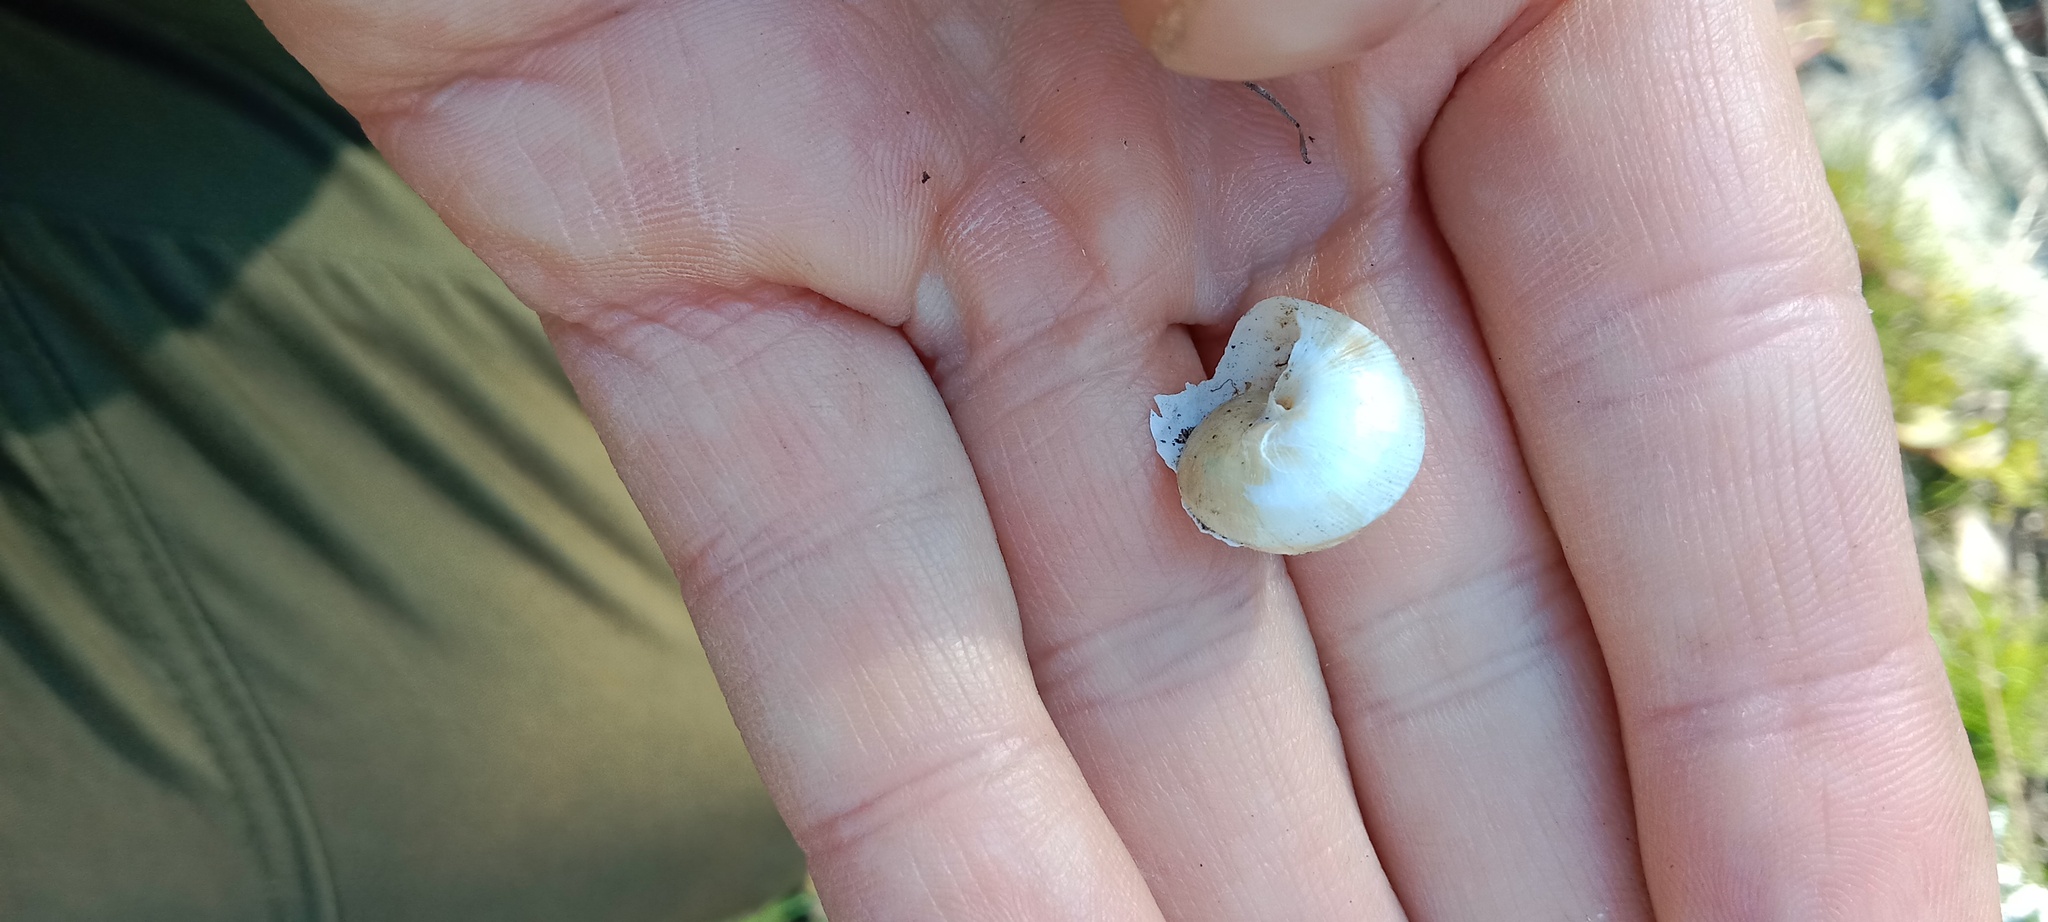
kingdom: Animalia
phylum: Mollusca
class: Gastropoda
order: Stylommatophora
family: Helicidae
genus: Caucasotachea
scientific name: Caucasotachea vindobonensis
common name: European helicid land snail
